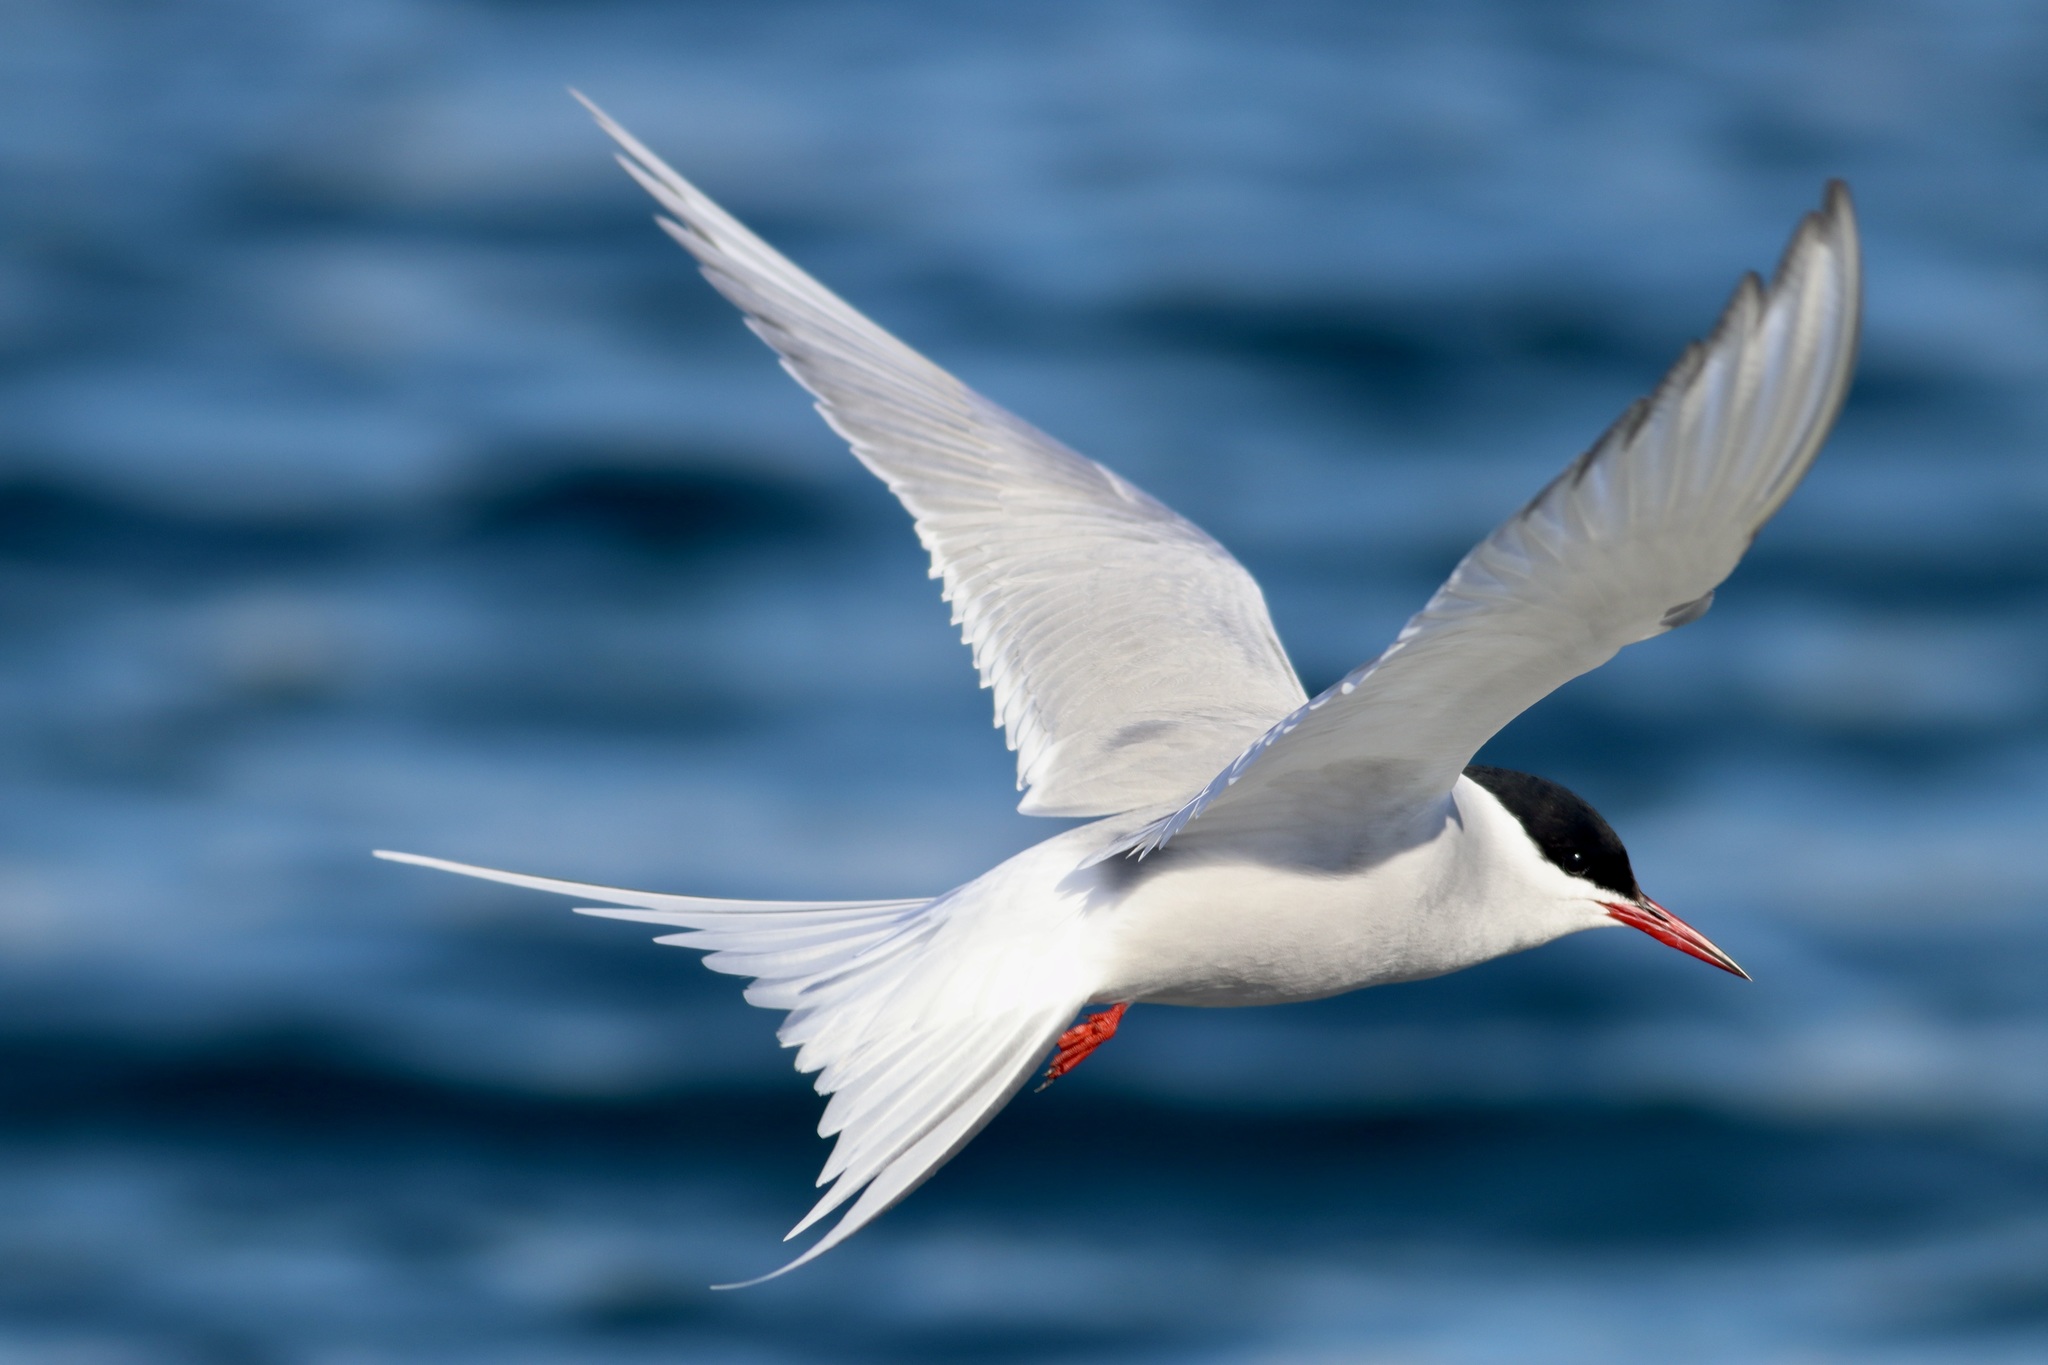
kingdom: Animalia
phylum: Chordata
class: Aves
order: Charadriiformes
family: Laridae
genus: Sterna
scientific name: Sterna paradisaea
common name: Arctic tern
